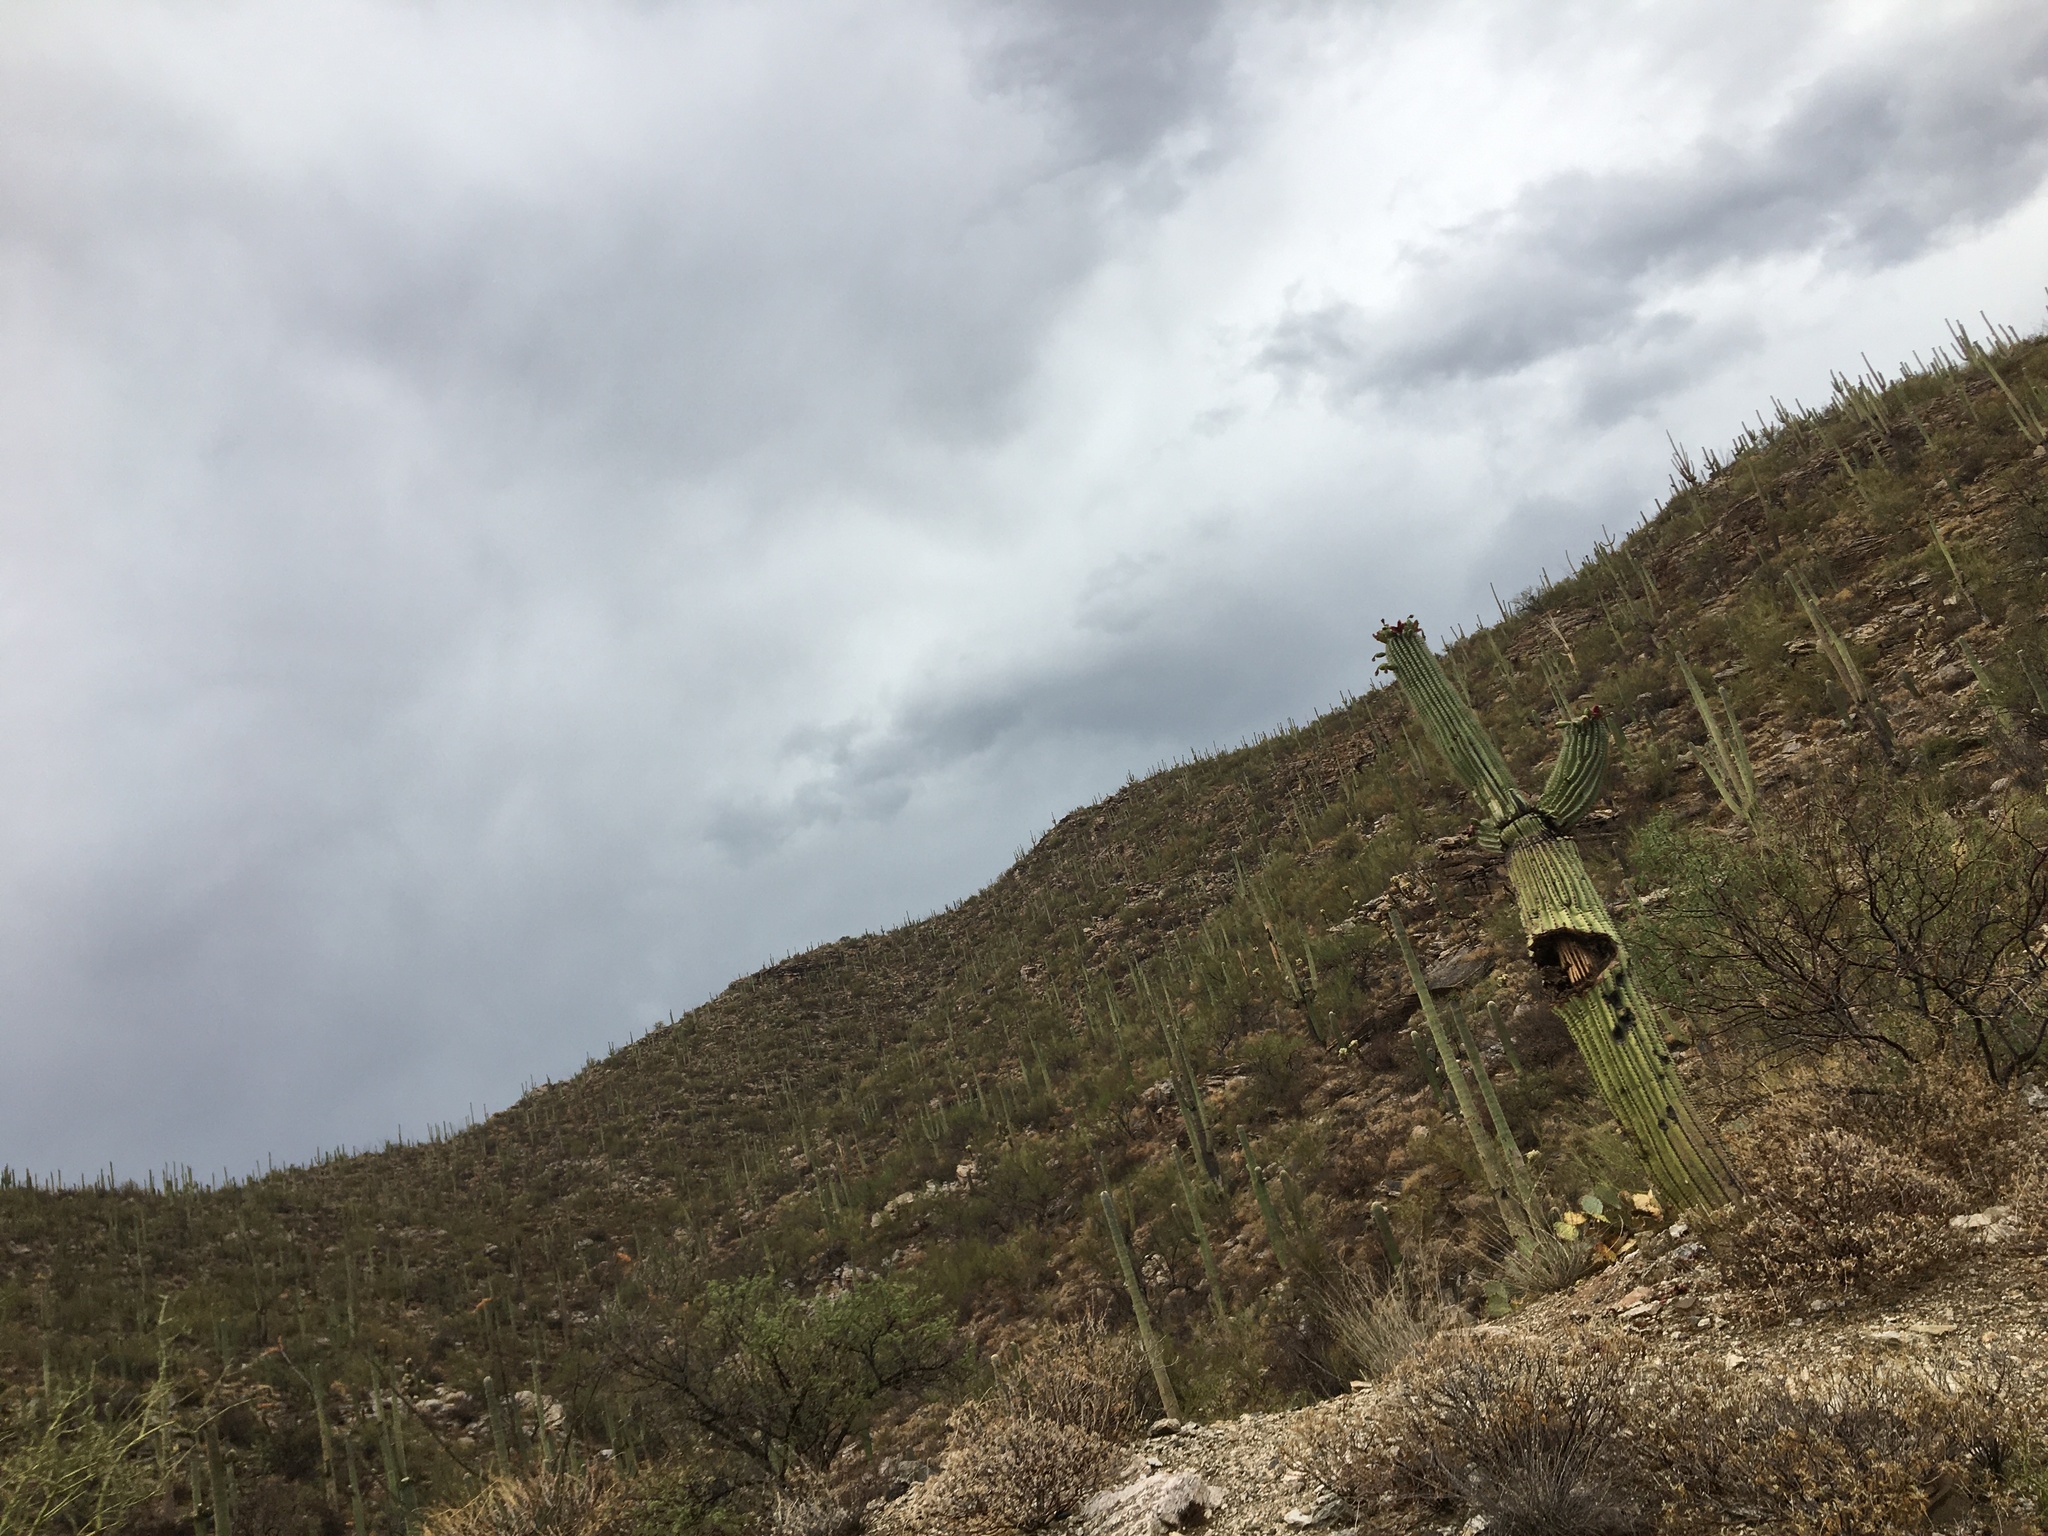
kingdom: Plantae
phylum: Tracheophyta
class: Magnoliopsida
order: Caryophyllales
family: Cactaceae
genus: Carnegiea
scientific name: Carnegiea gigantea
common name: Saguaro
